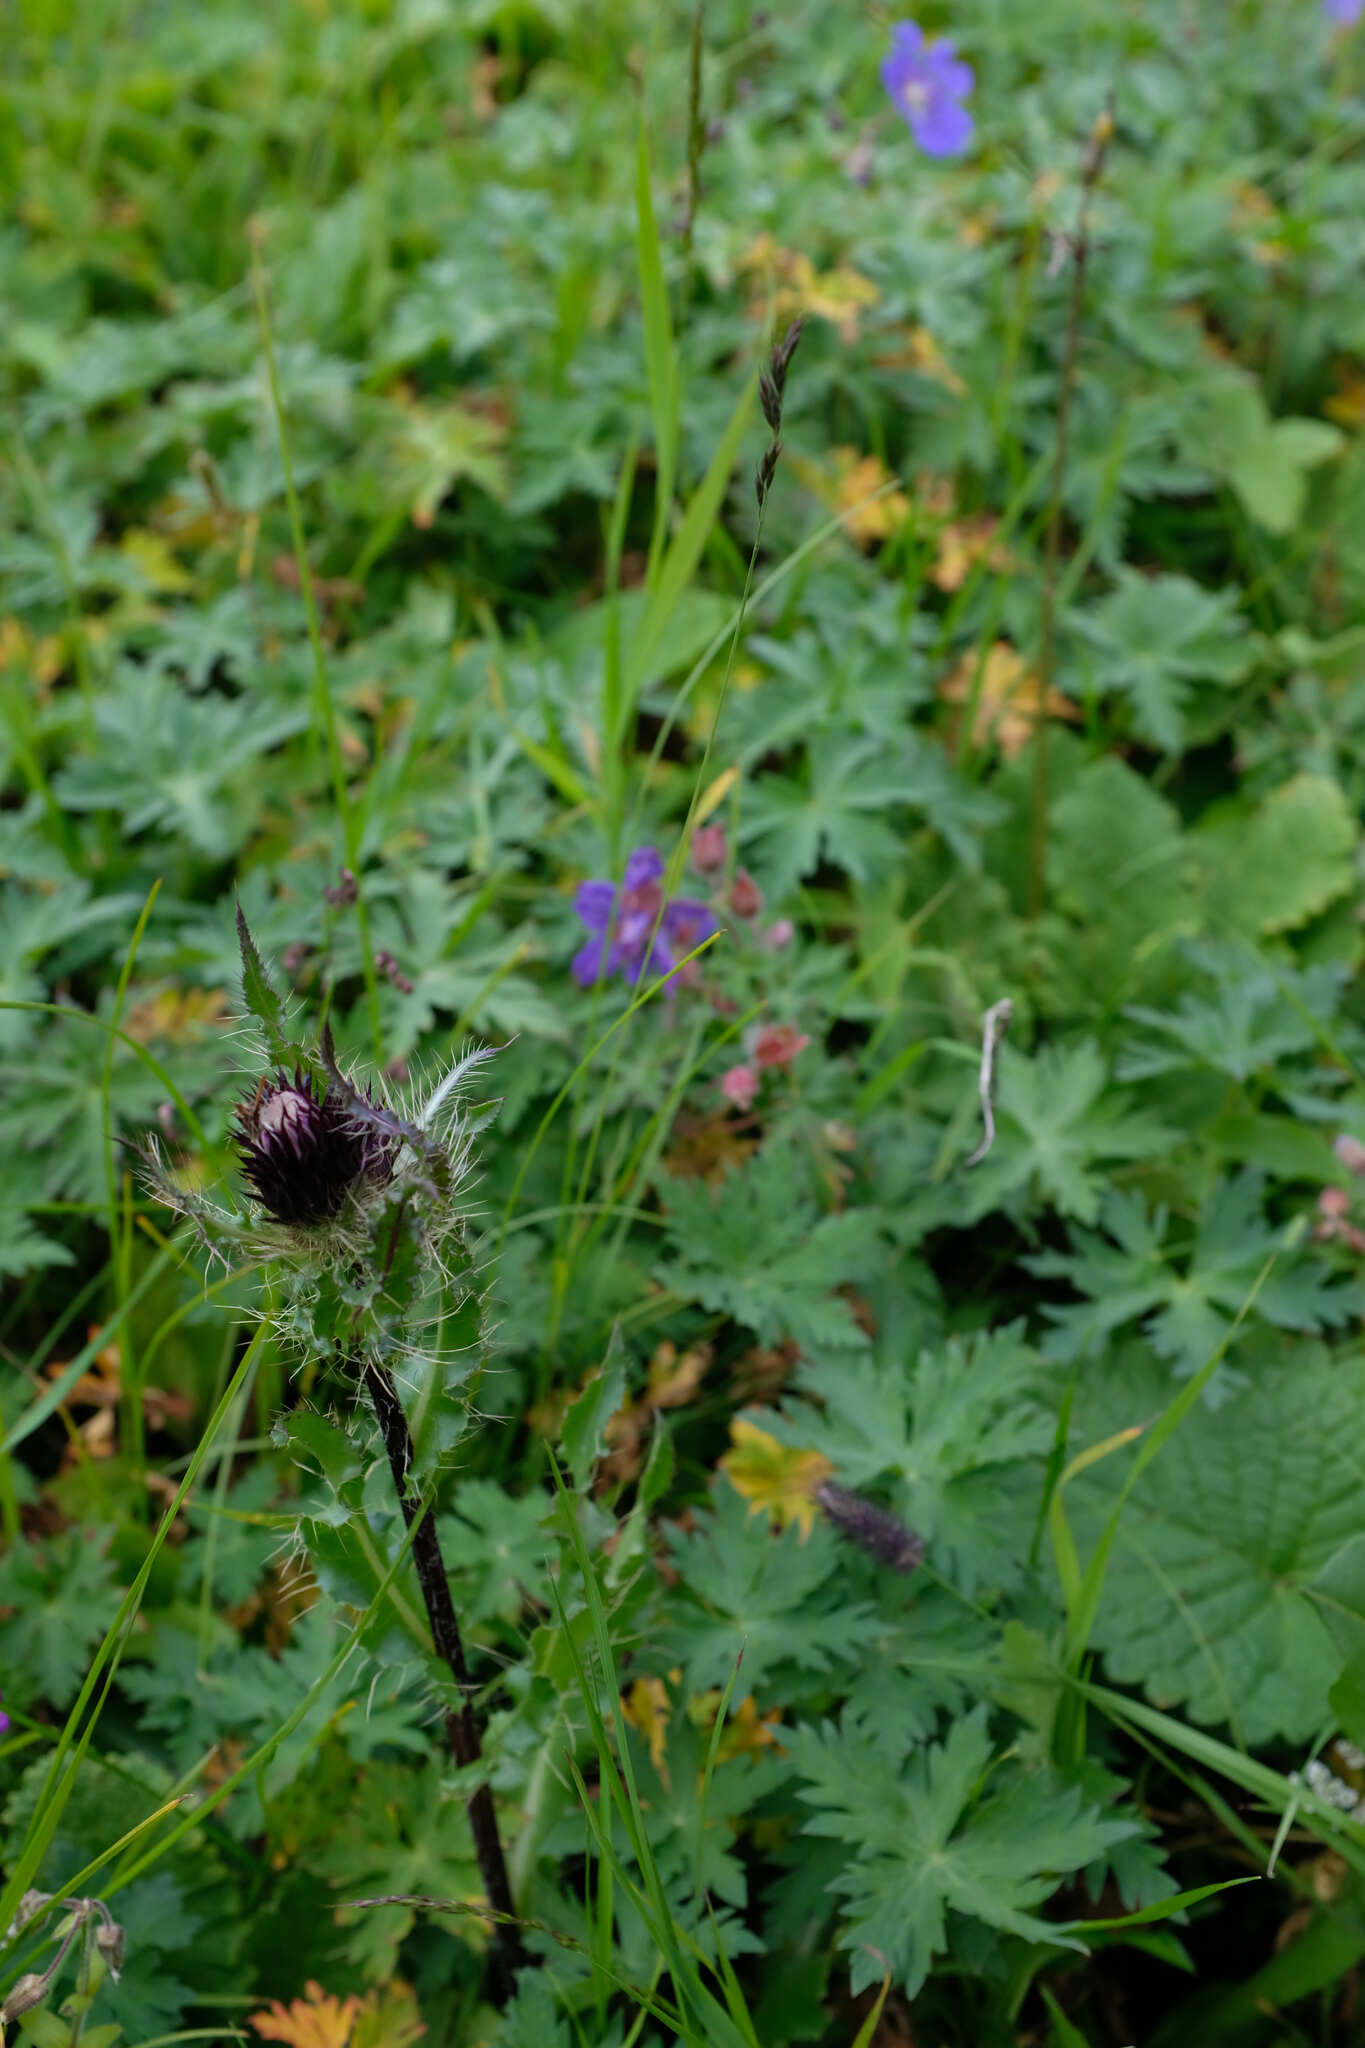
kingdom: Plantae
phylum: Tracheophyta
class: Magnoliopsida
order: Asterales
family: Asteraceae
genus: Cirsium
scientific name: Cirsium simplex
